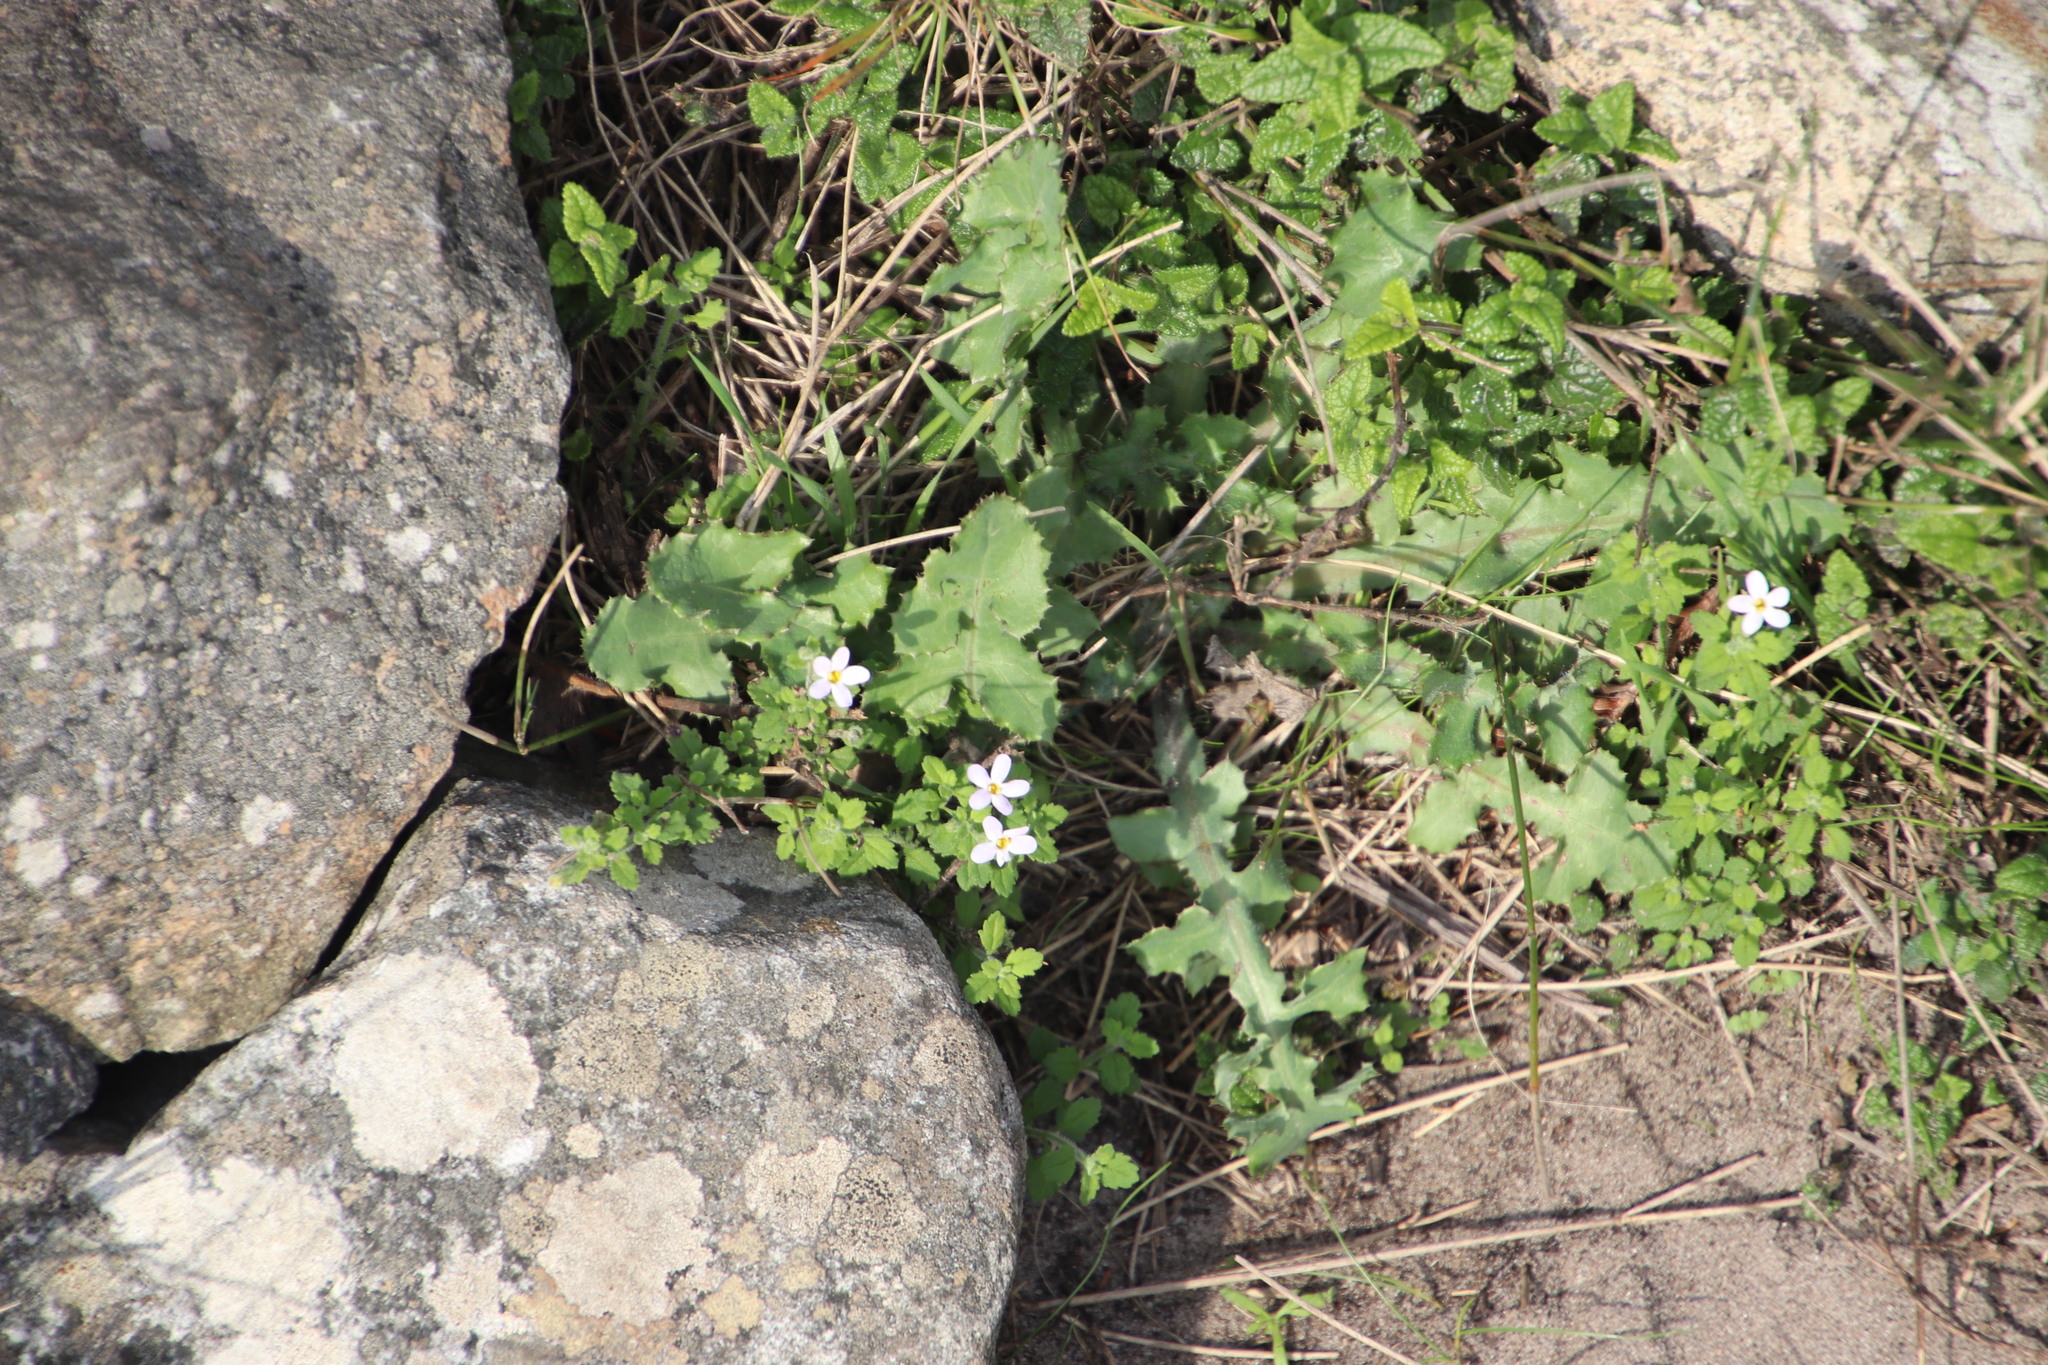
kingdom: Plantae
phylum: Tracheophyta
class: Magnoliopsida
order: Lamiales
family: Scrophulariaceae
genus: Chaenostoma
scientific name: Chaenostoma hispidum
